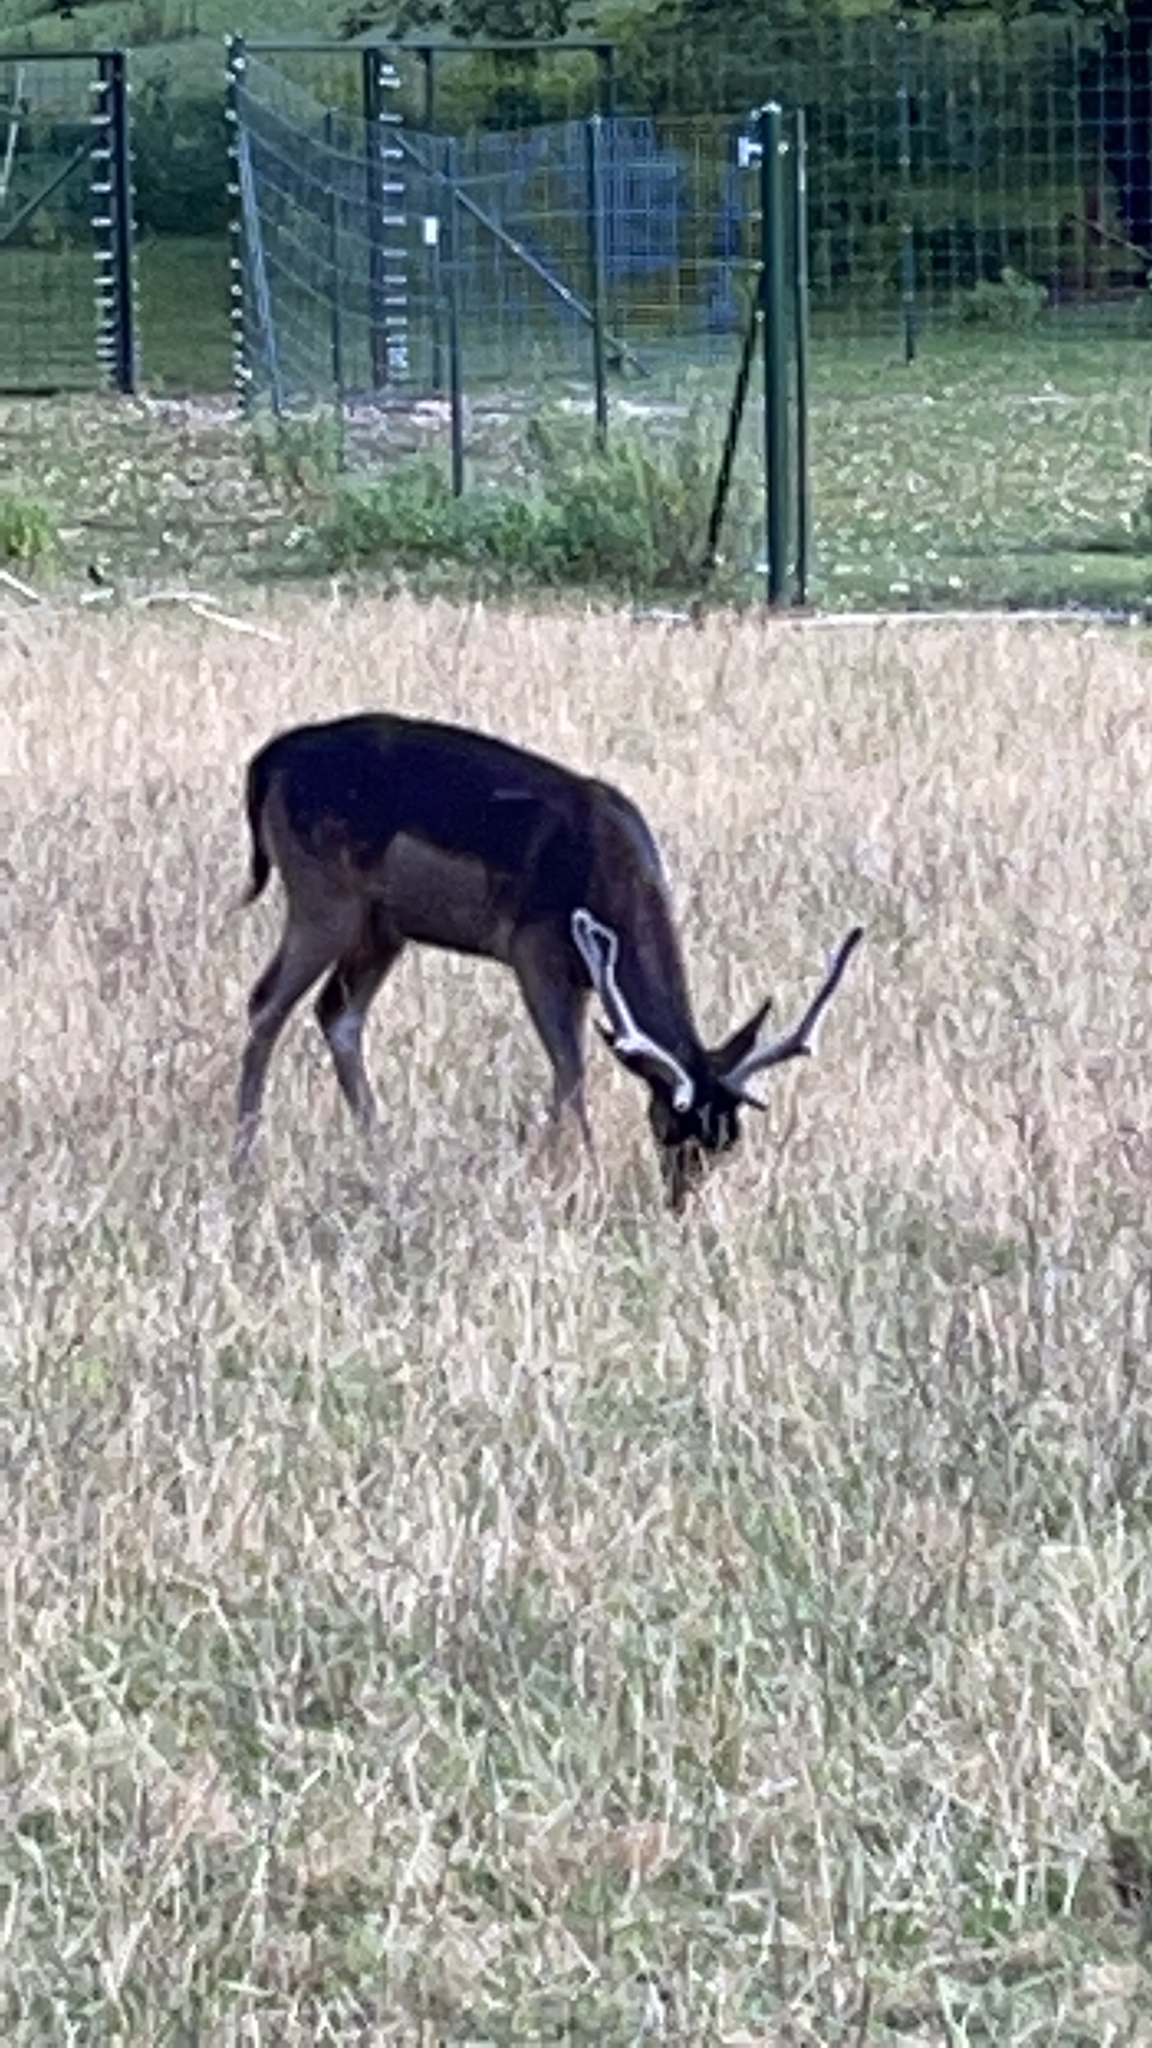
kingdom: Animalia
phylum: Chordata
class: Mammalia
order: Artiodactyla
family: Cervidae
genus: Dama
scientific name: Dama dama
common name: Fallow deer
